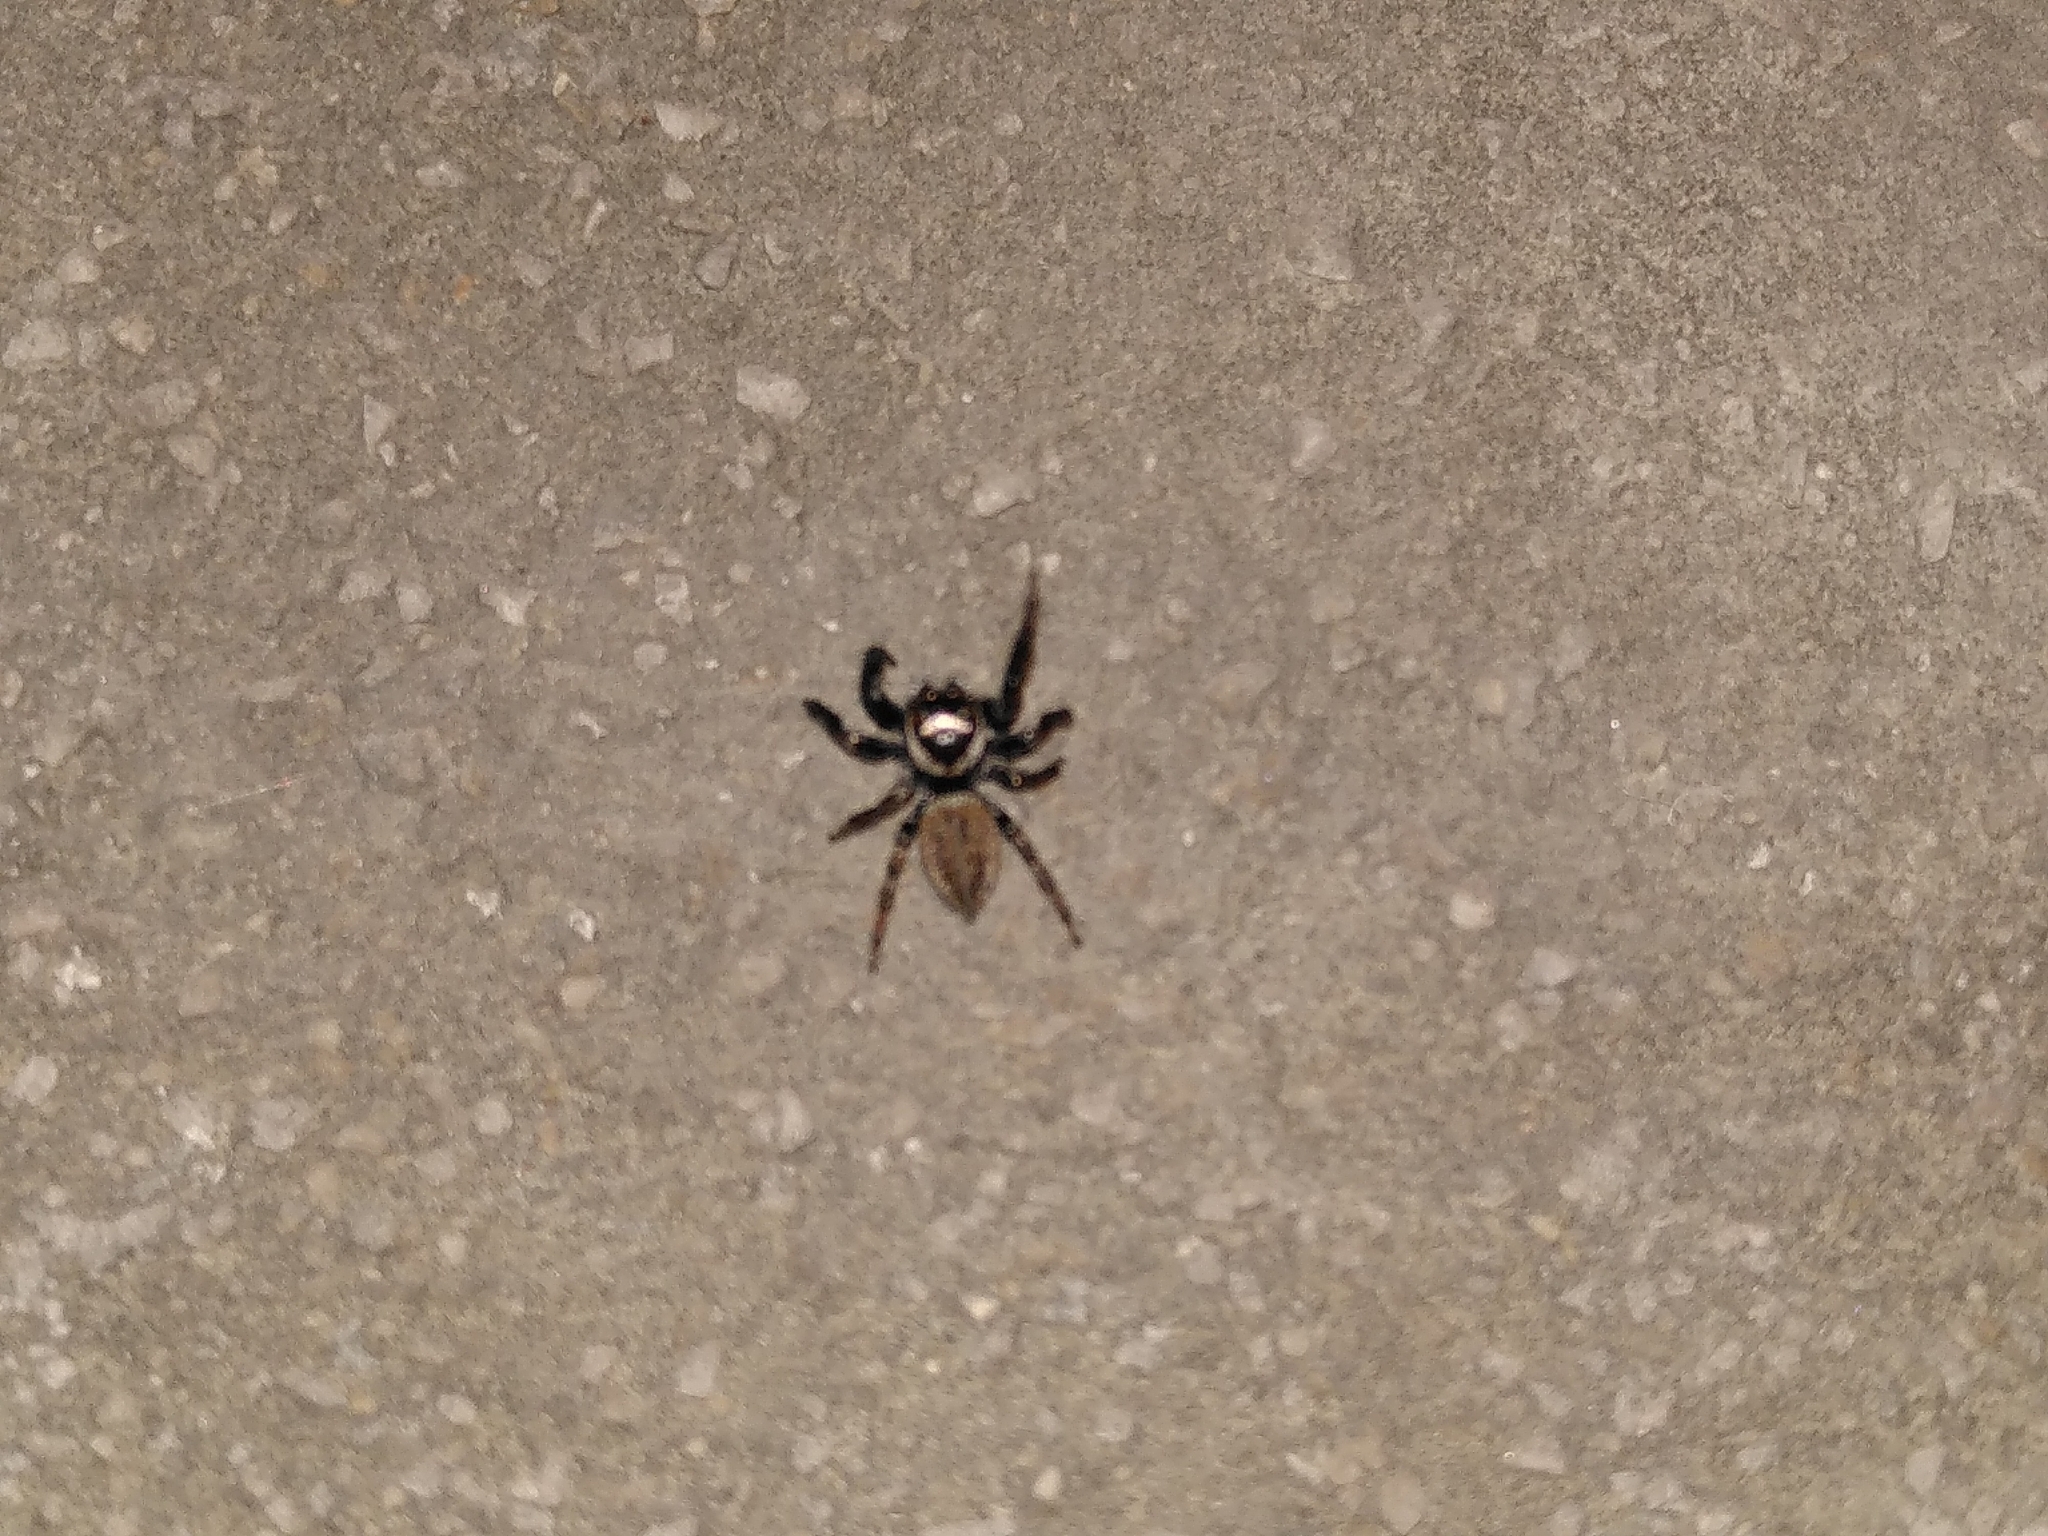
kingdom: Animalia
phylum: Arthropoda
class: Arachnida
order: Araneae
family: Salticidae
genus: Evarcha
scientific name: Evarcha jucunda
